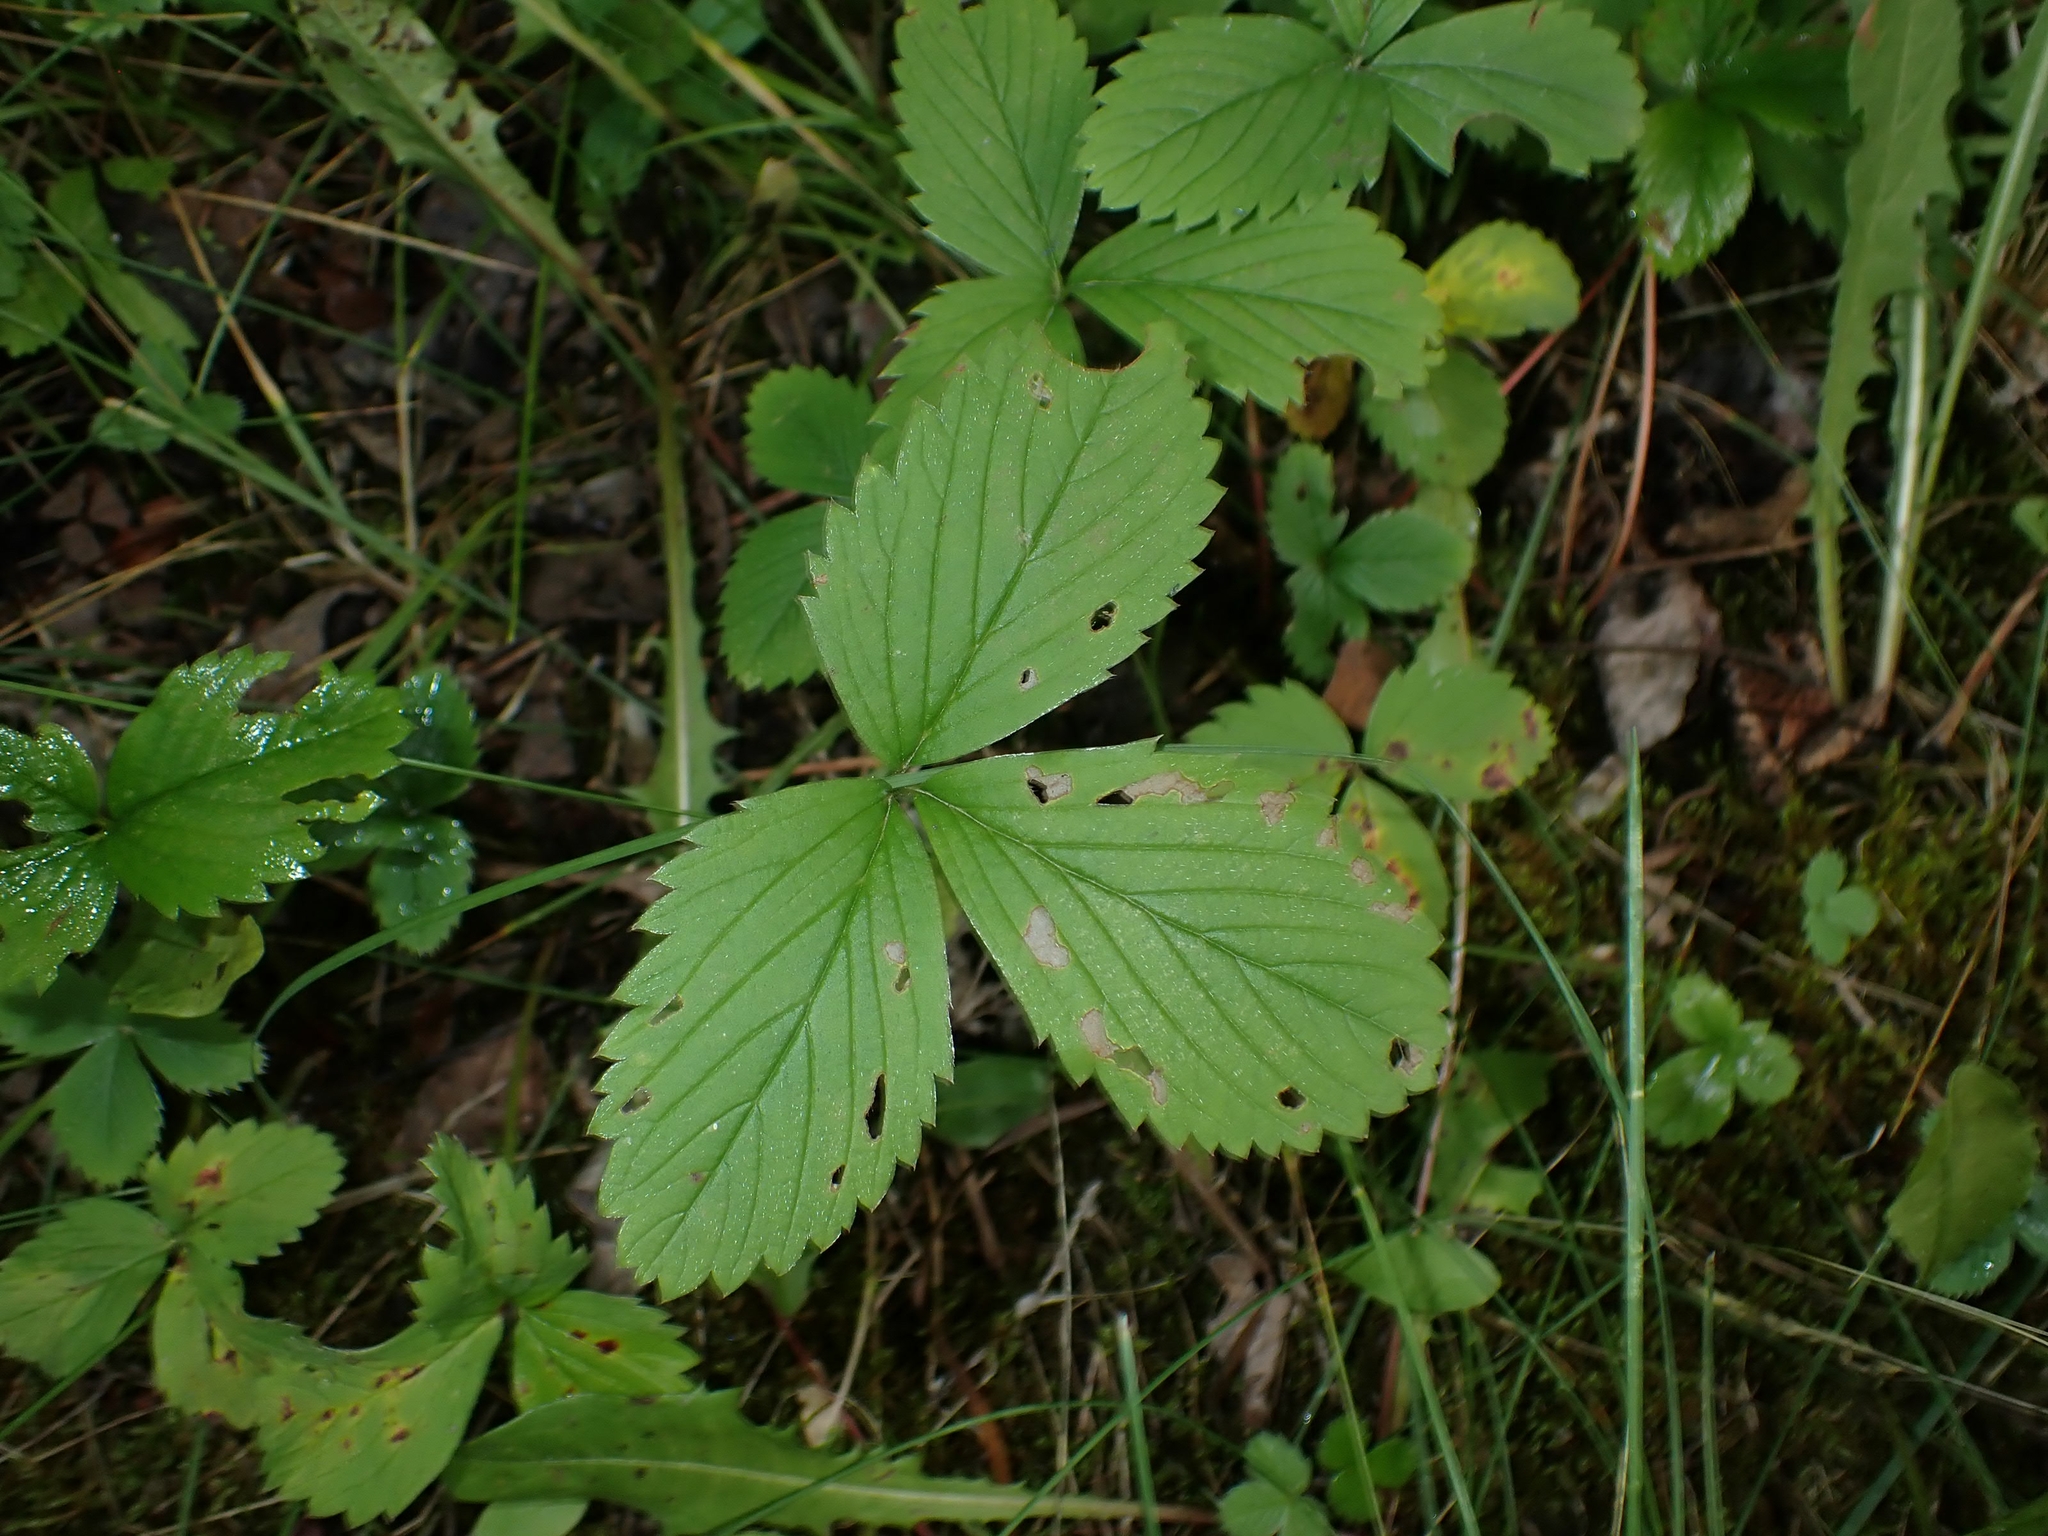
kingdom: Plantae
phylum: Tracheophyta
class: Magnoliopsida
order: Rosales
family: Rosaceae
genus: Fragaria
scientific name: Fragaria virginiana
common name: Thickleaved wild strawberry
